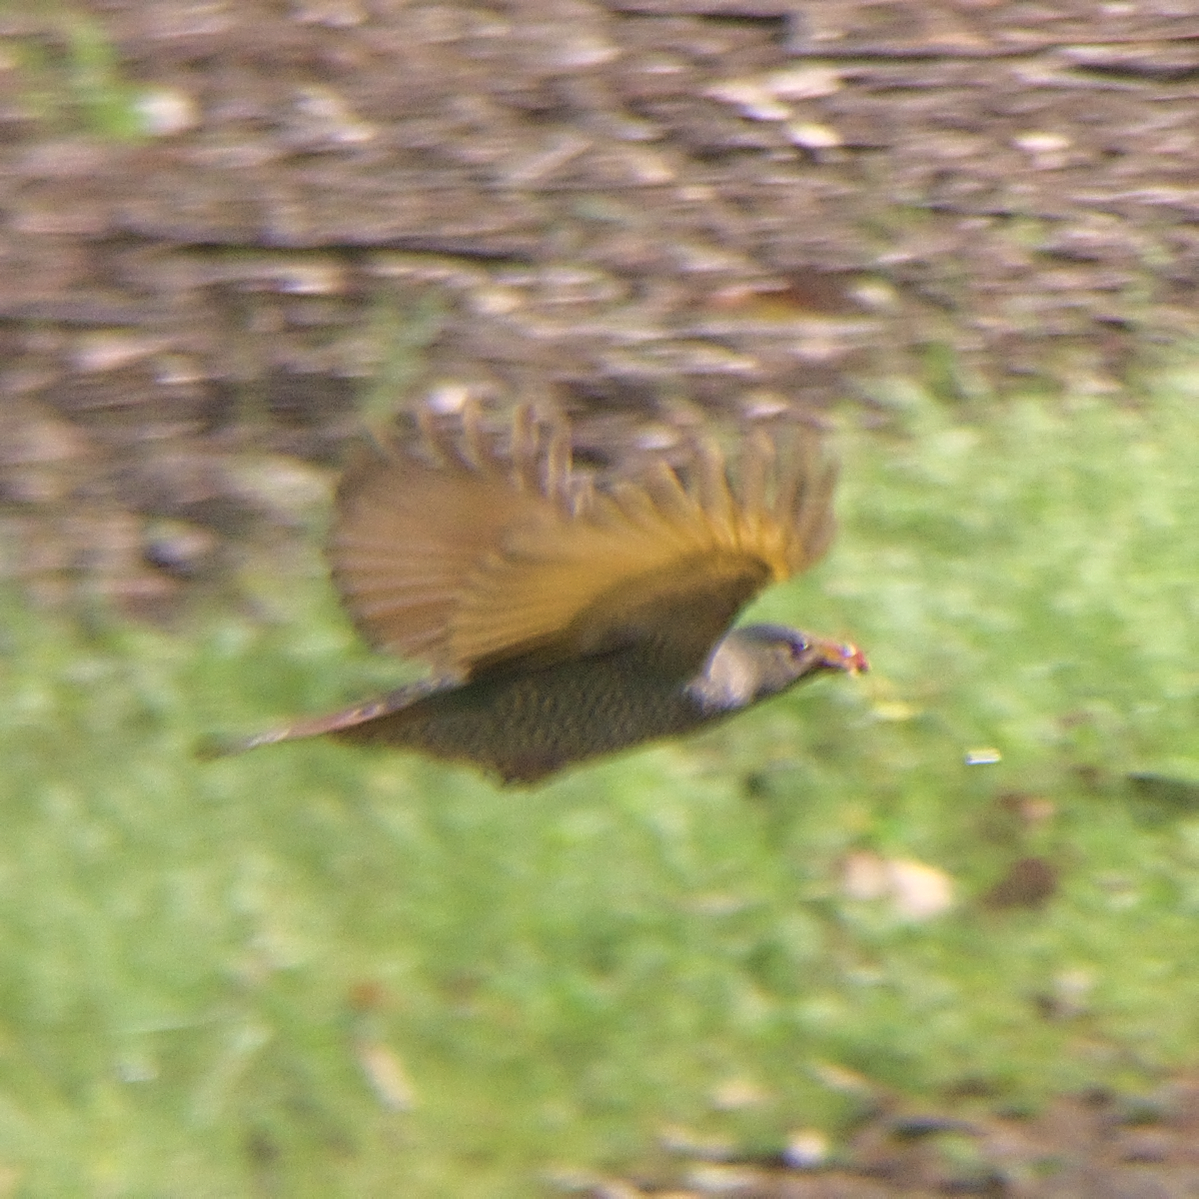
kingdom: Animalia
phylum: Chordata
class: Aves
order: Passeriformes
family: Ptilonorhynchidae
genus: Ptilonorhynchus
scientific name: Ptilonorhynchus violaceus
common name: Satin bowerbird
